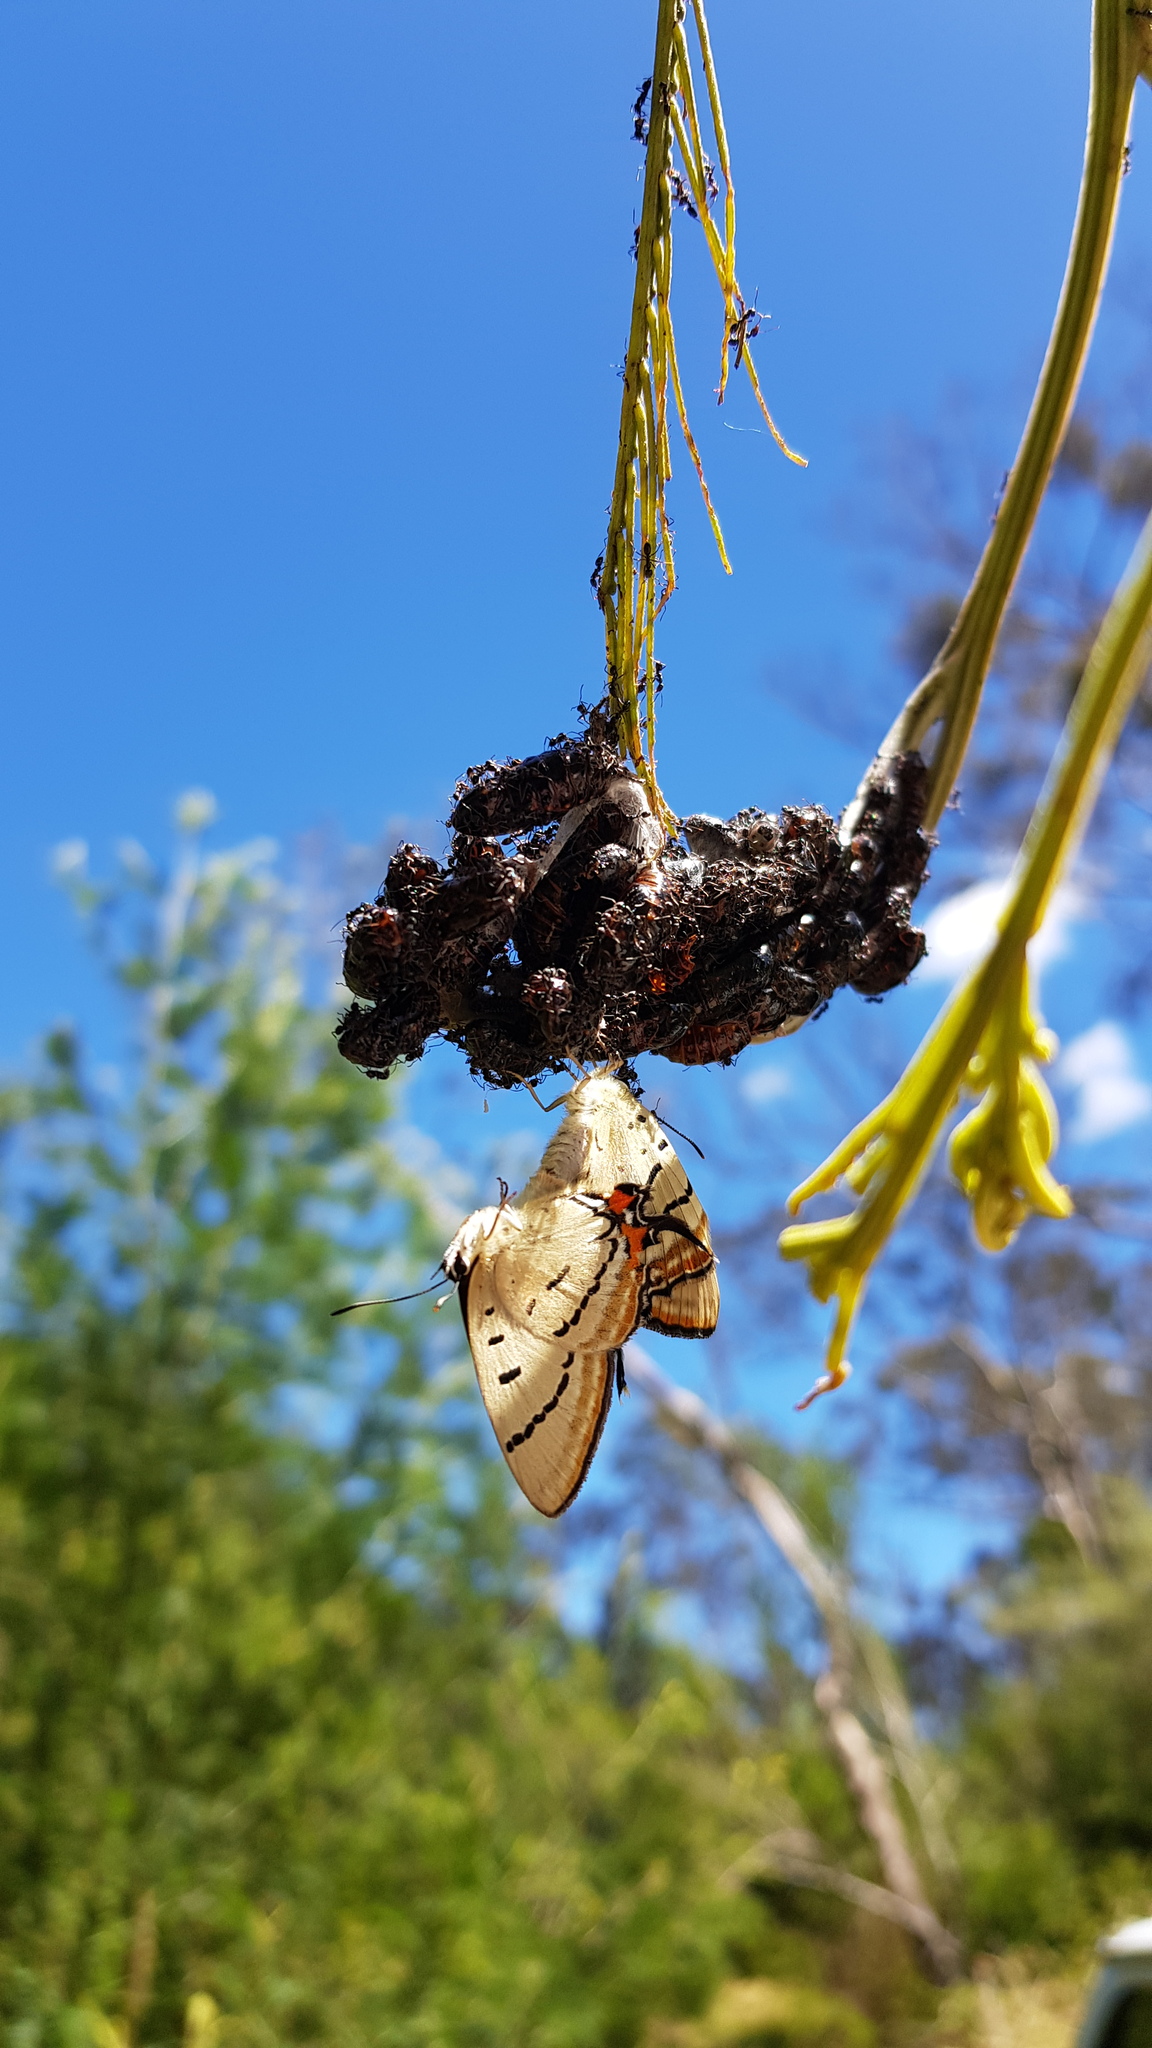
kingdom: Animalia
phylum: Arthropoda
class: Insecta
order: Lepidoptera
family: Lycaenidae
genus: Jalmenus
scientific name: Jalmenus evagoras
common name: Common imperial blue
